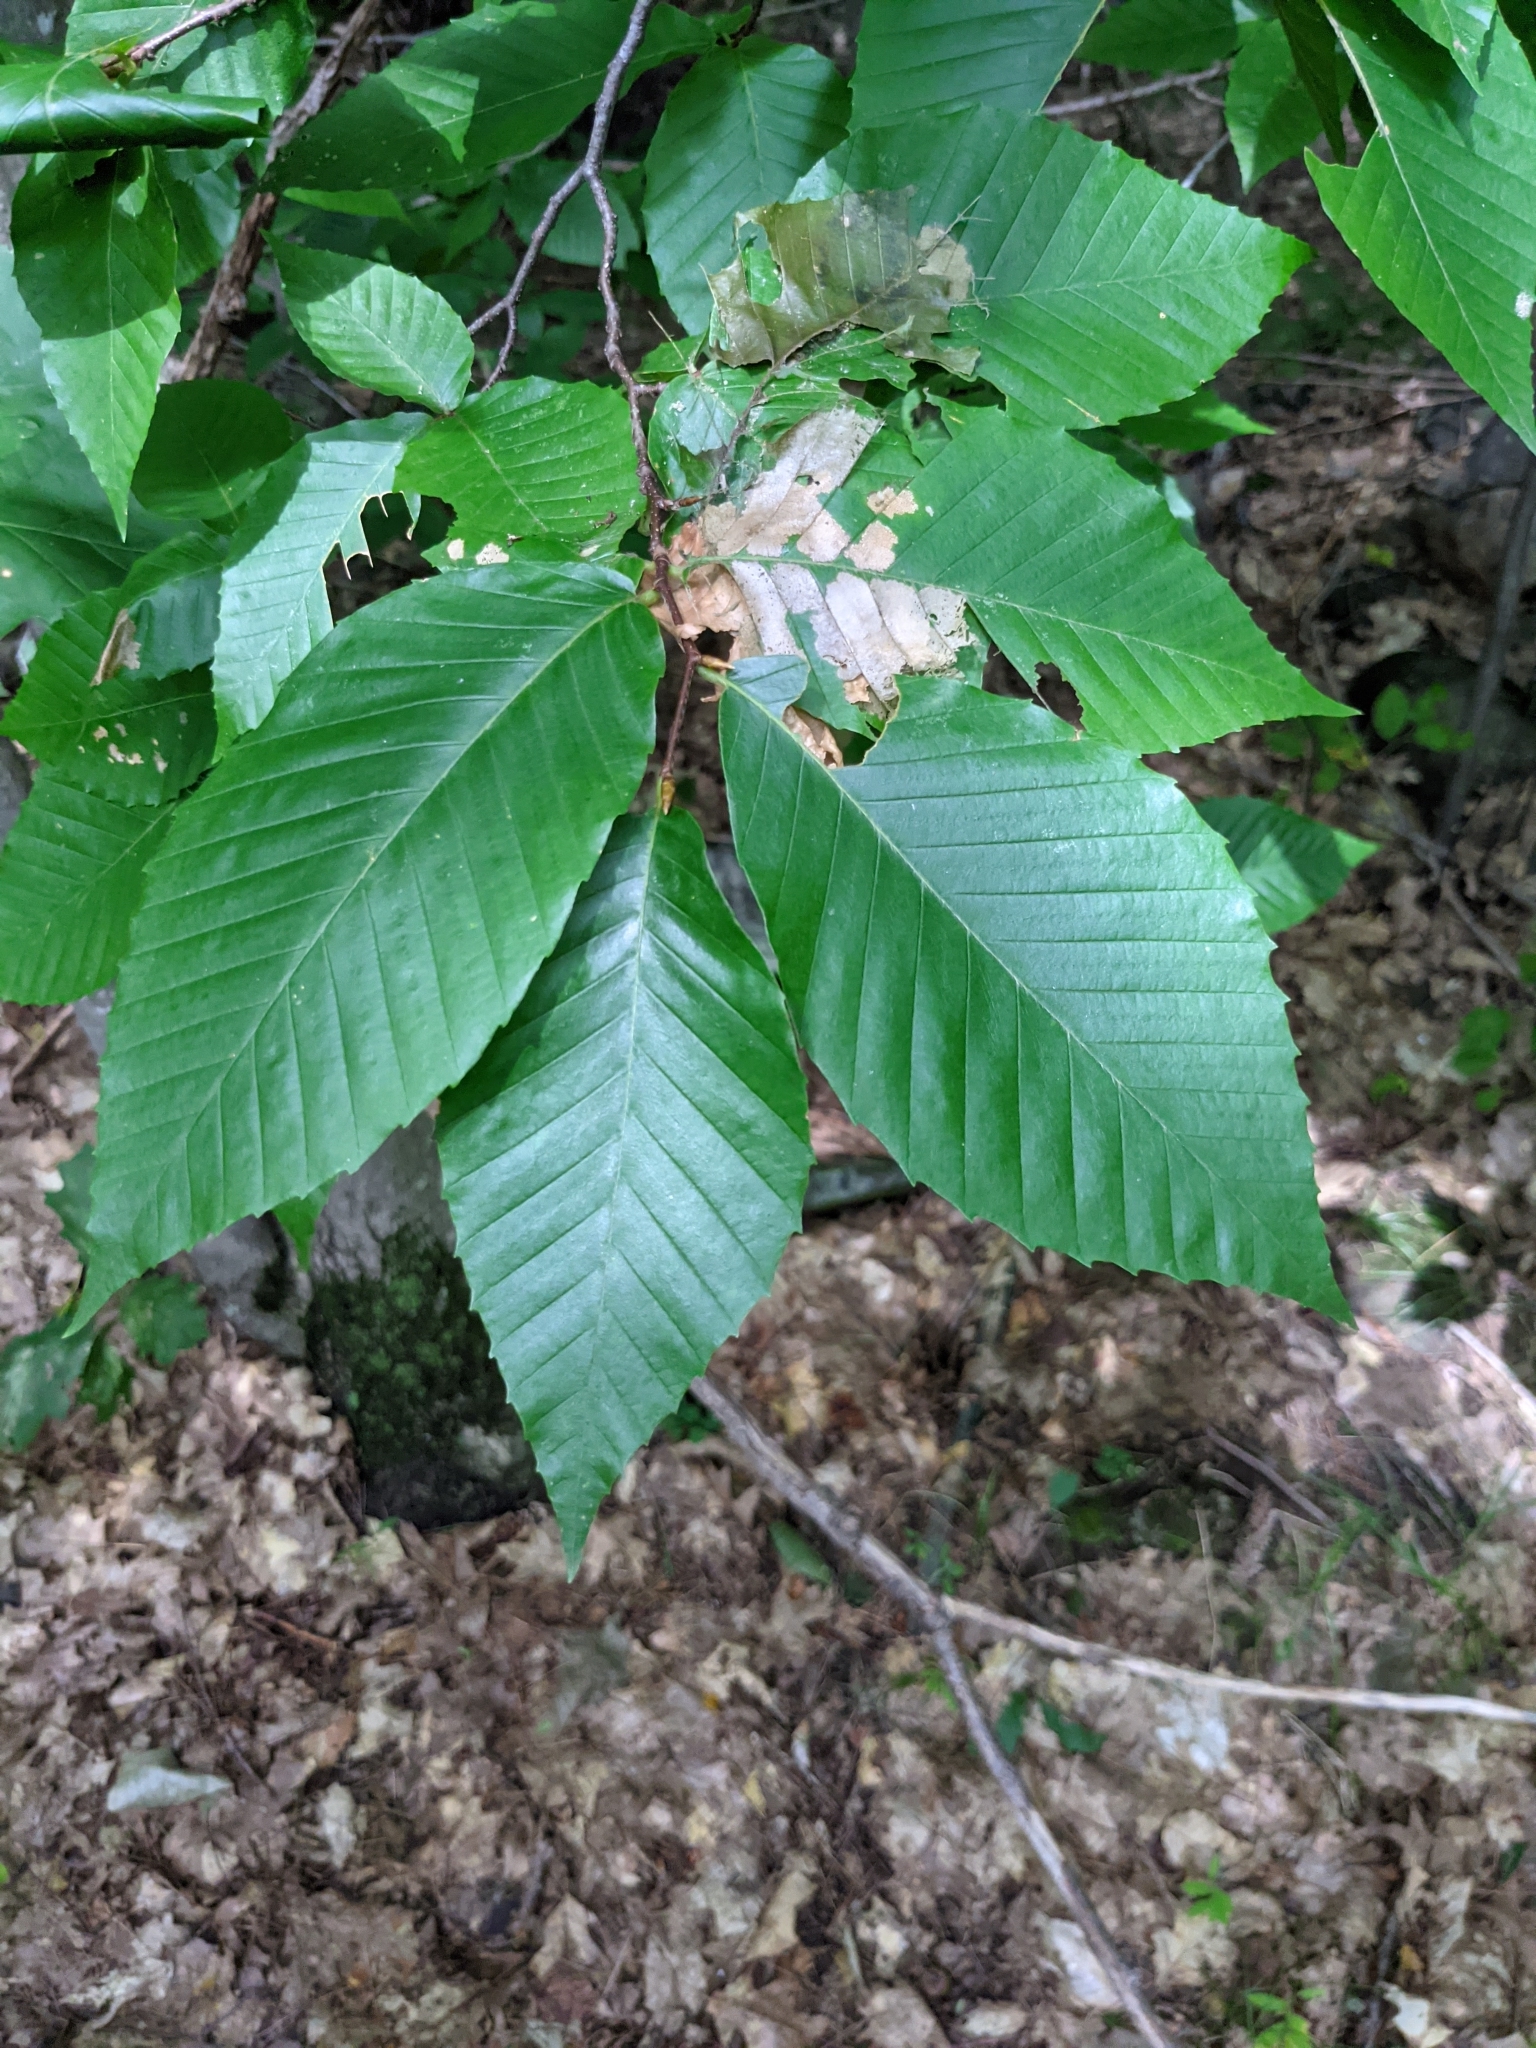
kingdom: Plantae
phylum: Tracheophyta
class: Magnoliopsida
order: Fagales
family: Fagaceae
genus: Fagus
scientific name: Fagus grandifolia
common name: American beech
